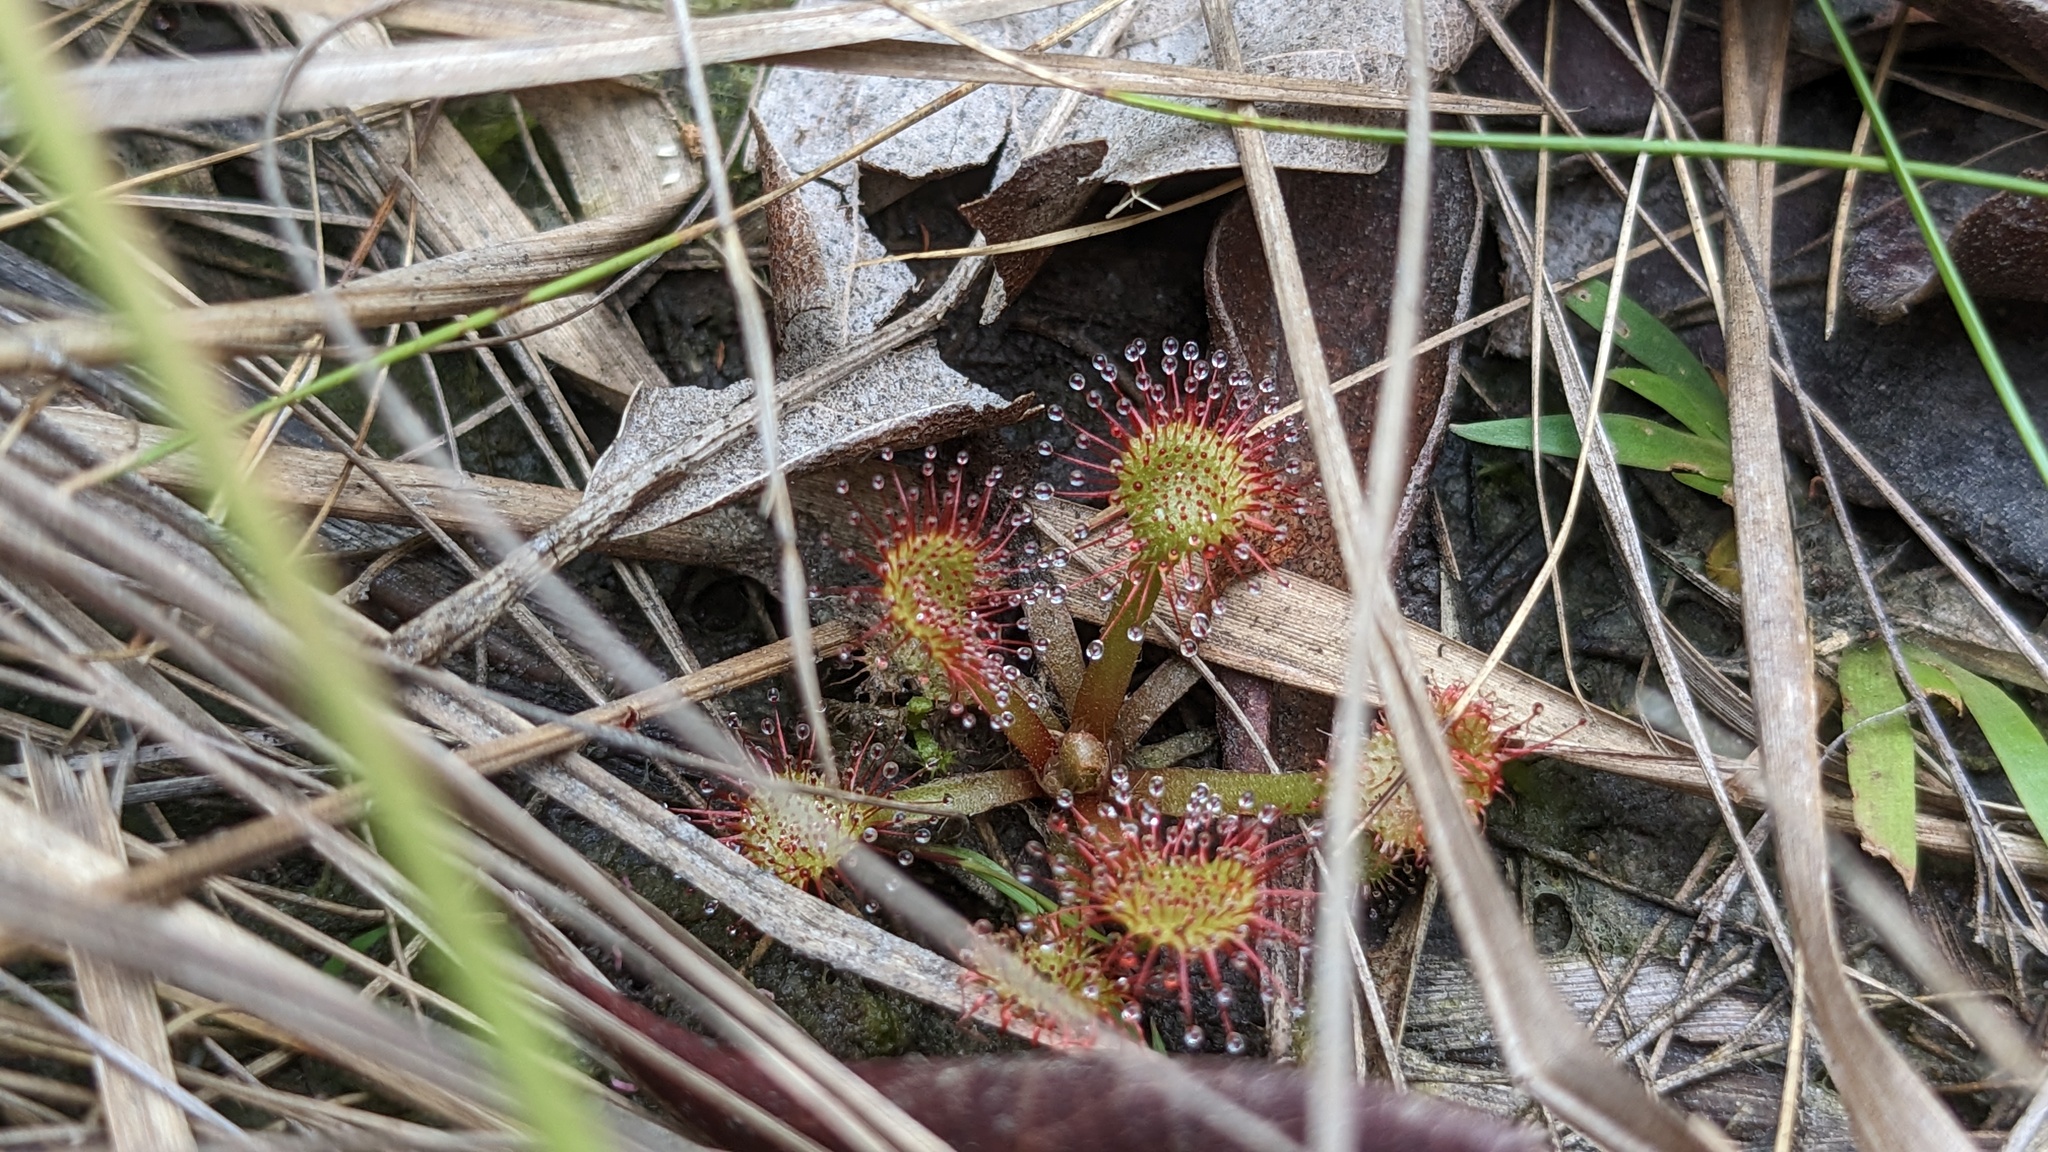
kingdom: Plantae
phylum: Tracheophyta
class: Magnoliopsida
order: Caryophyllales
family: Droseraceae
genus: Drosera
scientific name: Drosera capillaris
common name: Pink sundew
